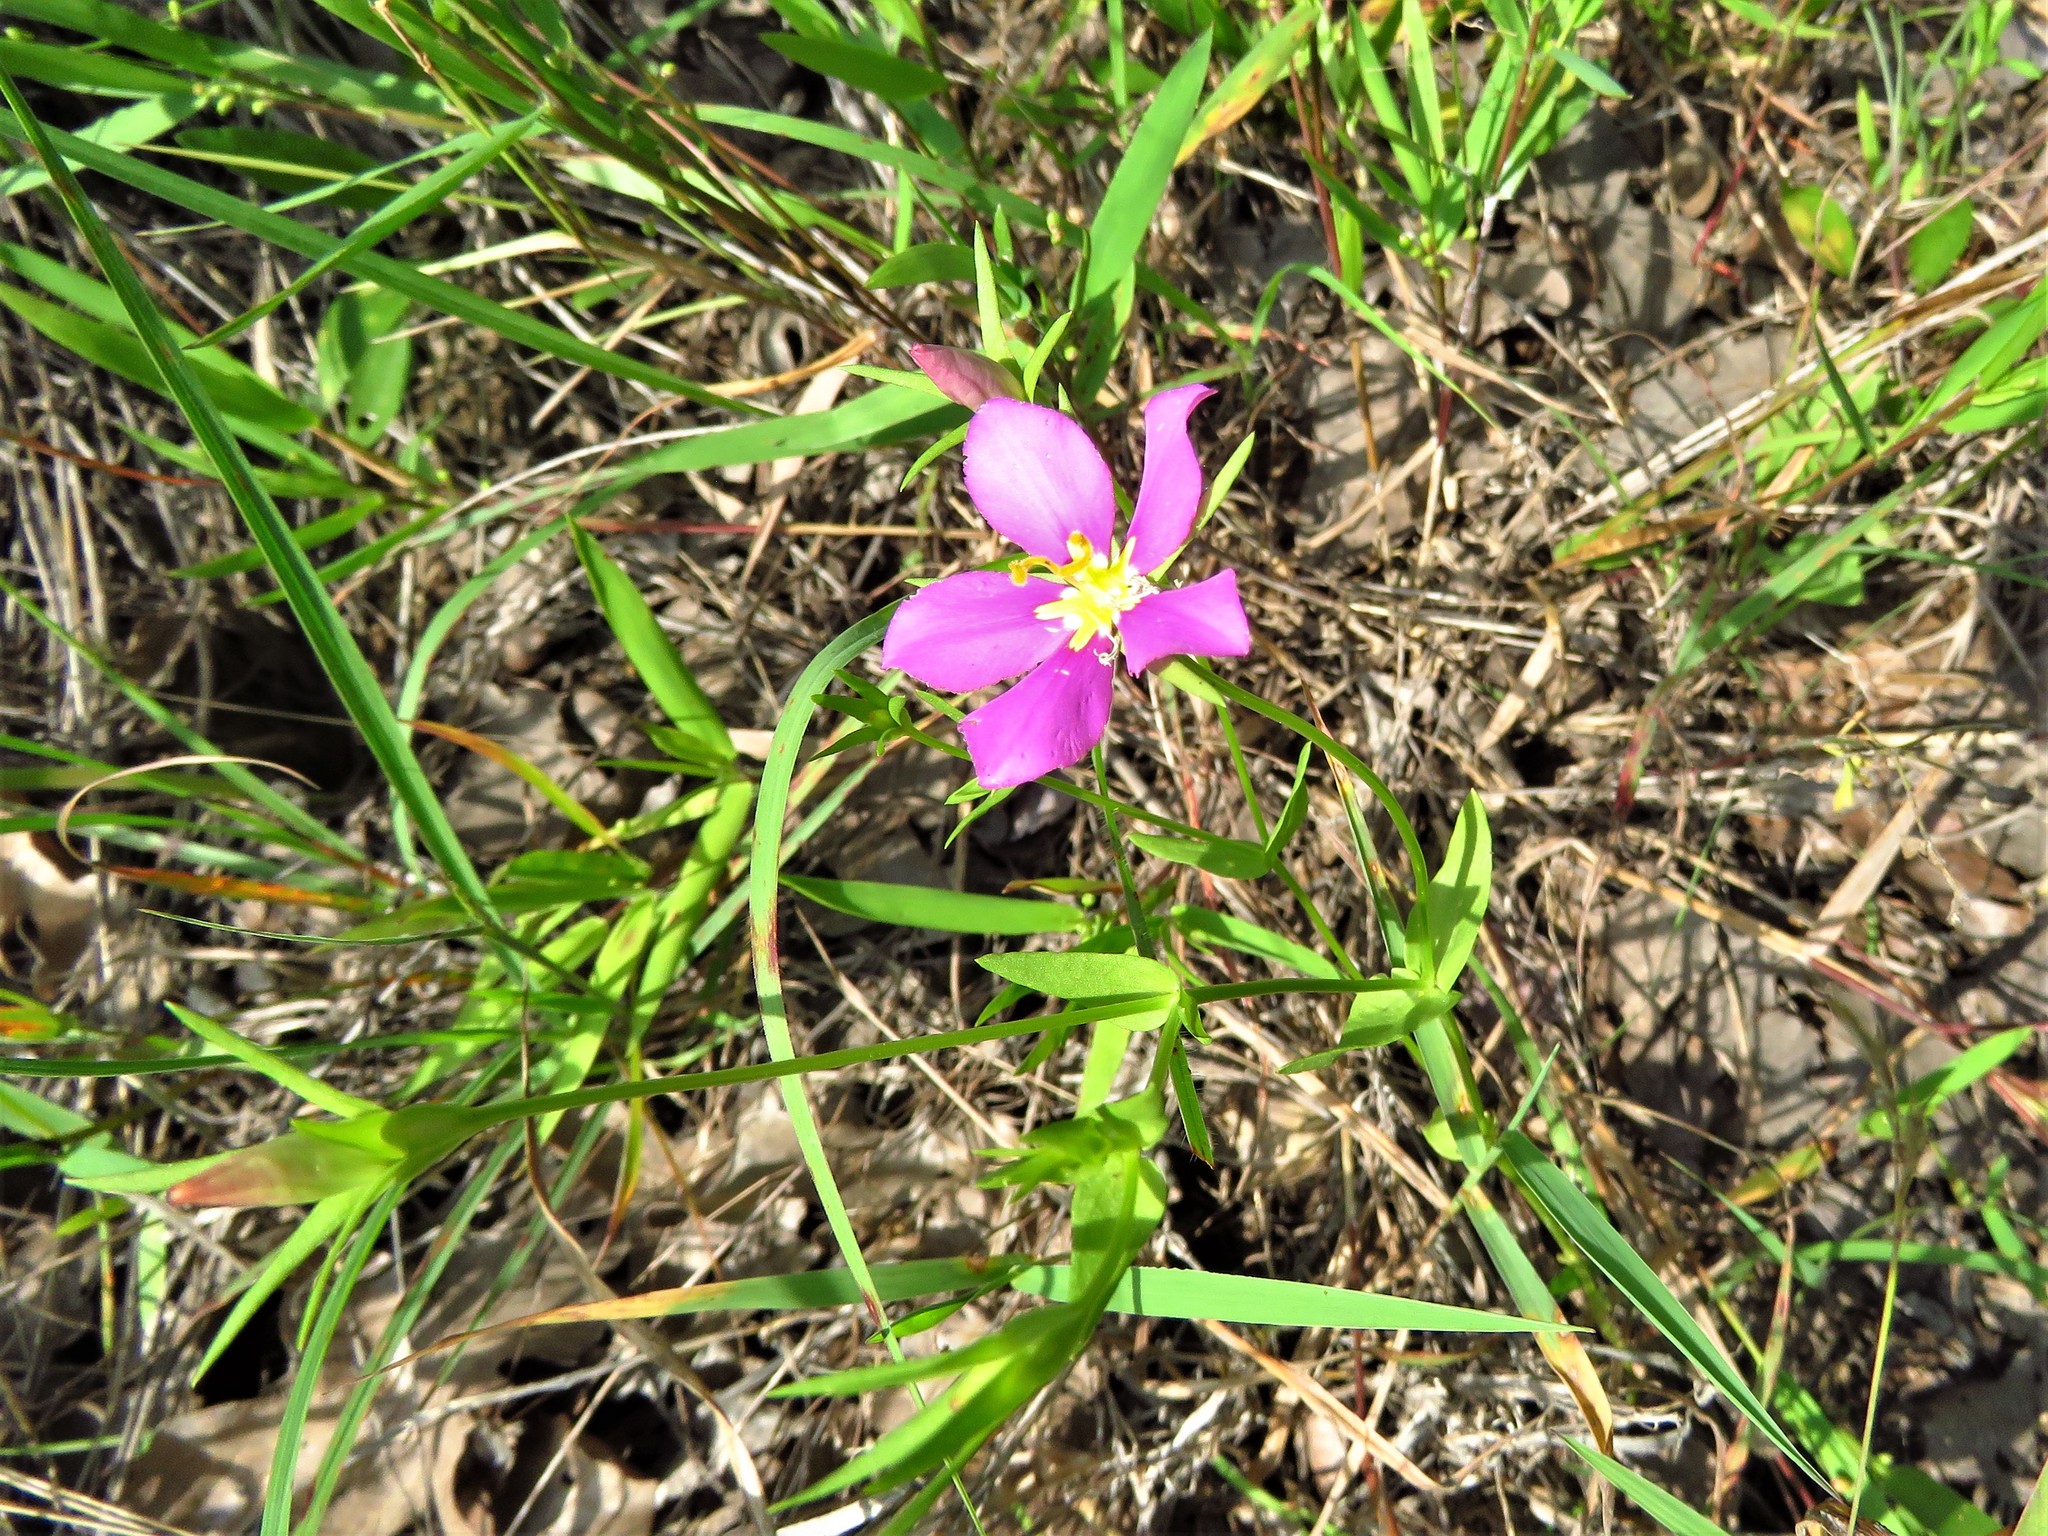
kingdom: Plantae
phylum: Tracheophyta
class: Magnoliopsida
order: Gentianales
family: Gentianaceae
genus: Sabatia
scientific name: Sabatia campestris
